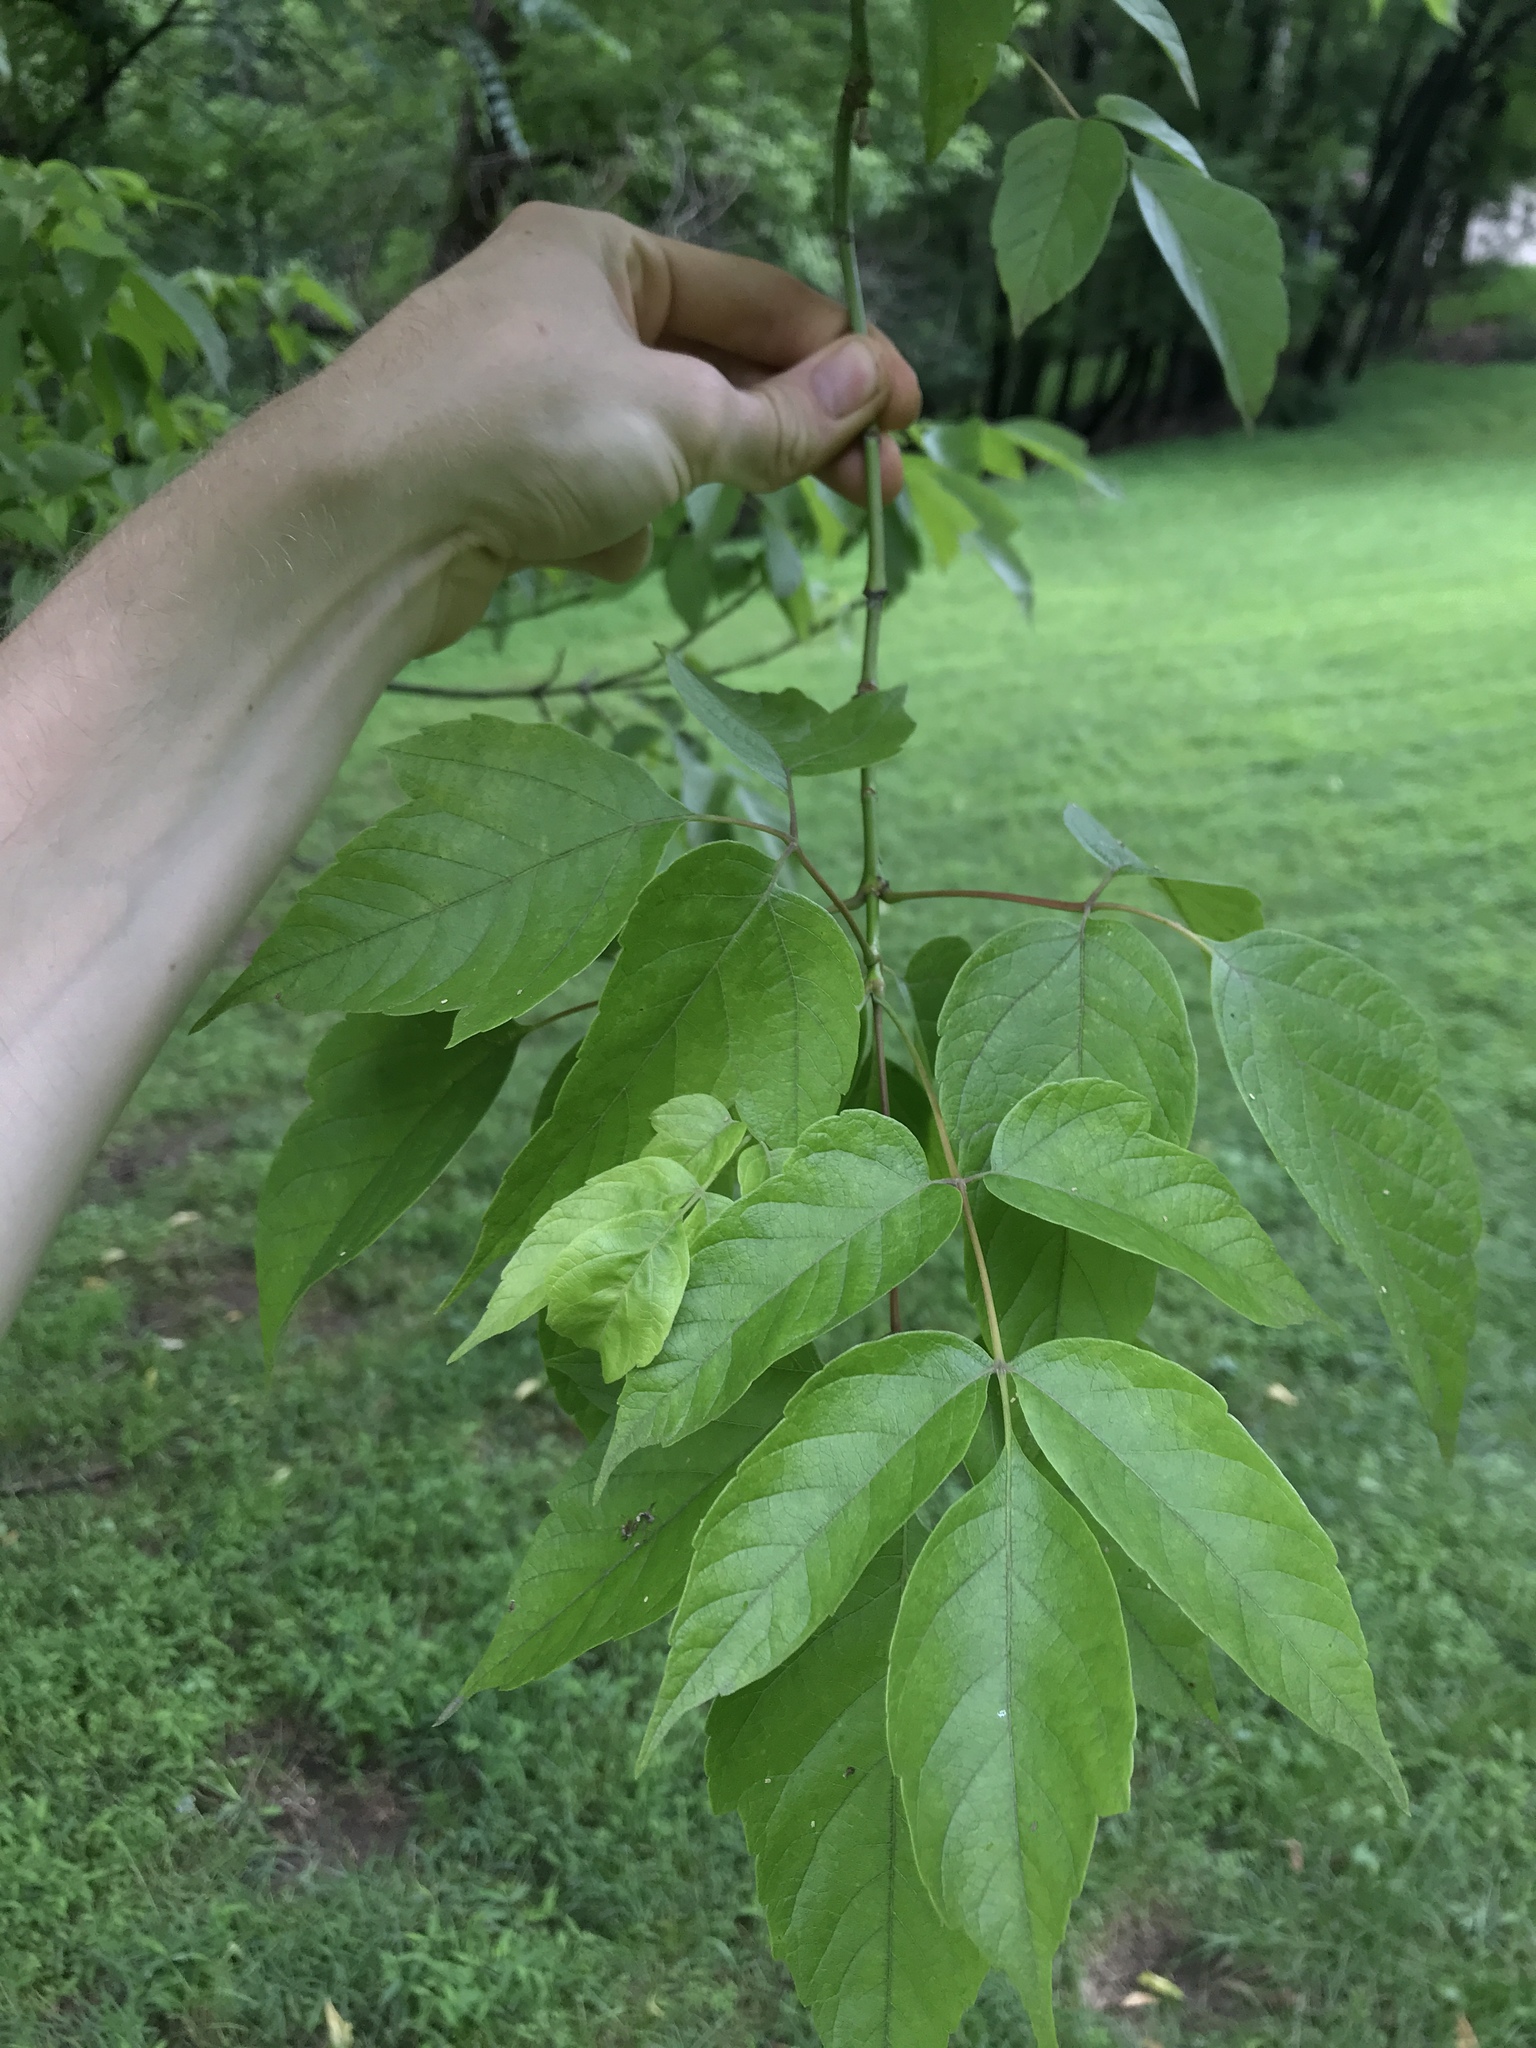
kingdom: Plantae
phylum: Tracheophyta
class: Magnoliopsida
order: Sapindales
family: Sapindaceae
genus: Acer
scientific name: Acer negundo
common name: Ashleaf maple
